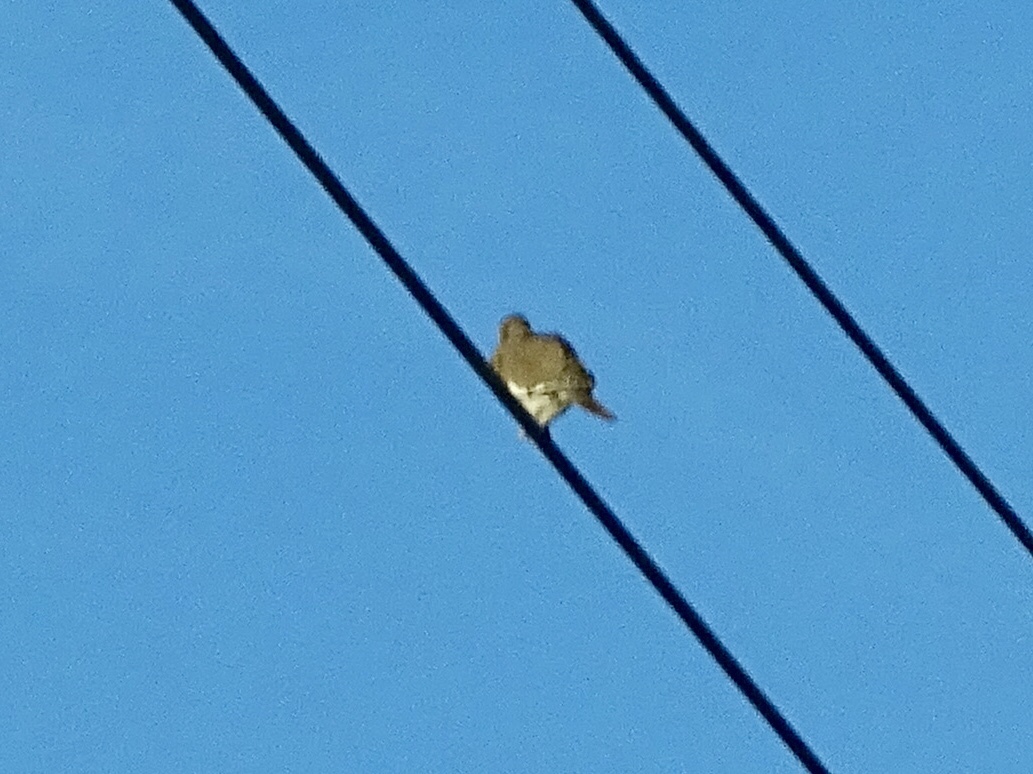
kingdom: Animalia
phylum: Chordata
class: Aves
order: Columbiformes
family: Columbidae
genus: Zenaida
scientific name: Zenaida asiatica
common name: White-winged dove
